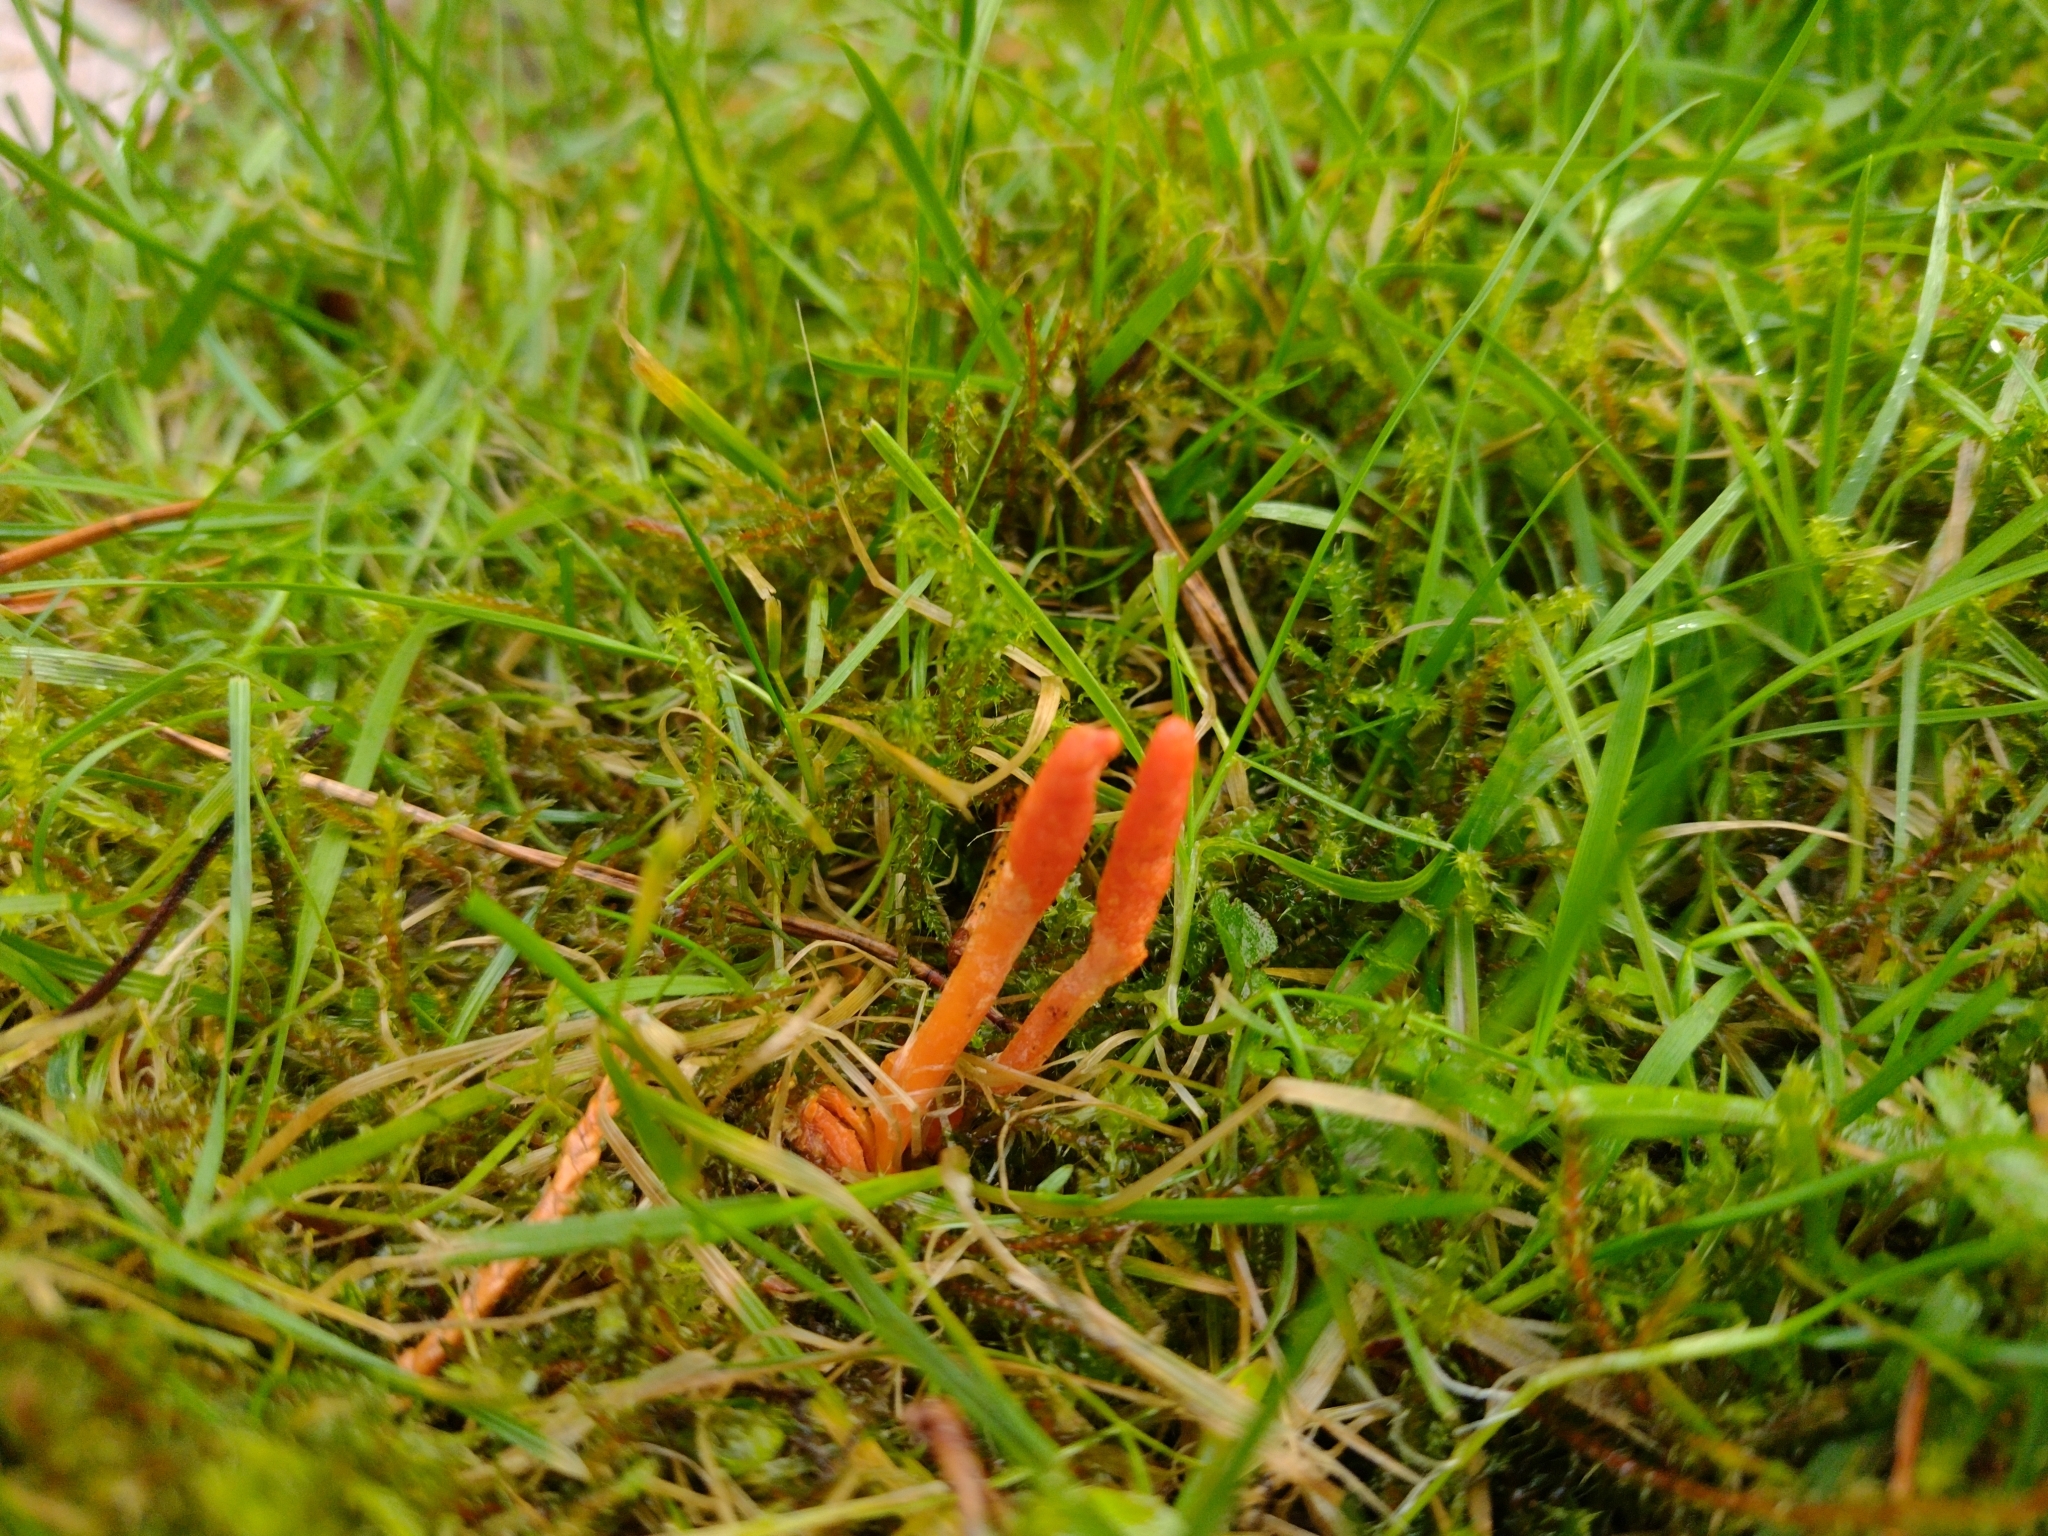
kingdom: Fungi
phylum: Ascomycota
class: Sordariomycetes
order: Hypocreales
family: Cordycipitaceae
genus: Cordyceps
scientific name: Cordyceps militaris
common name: Scarlet caterpillar fungus
